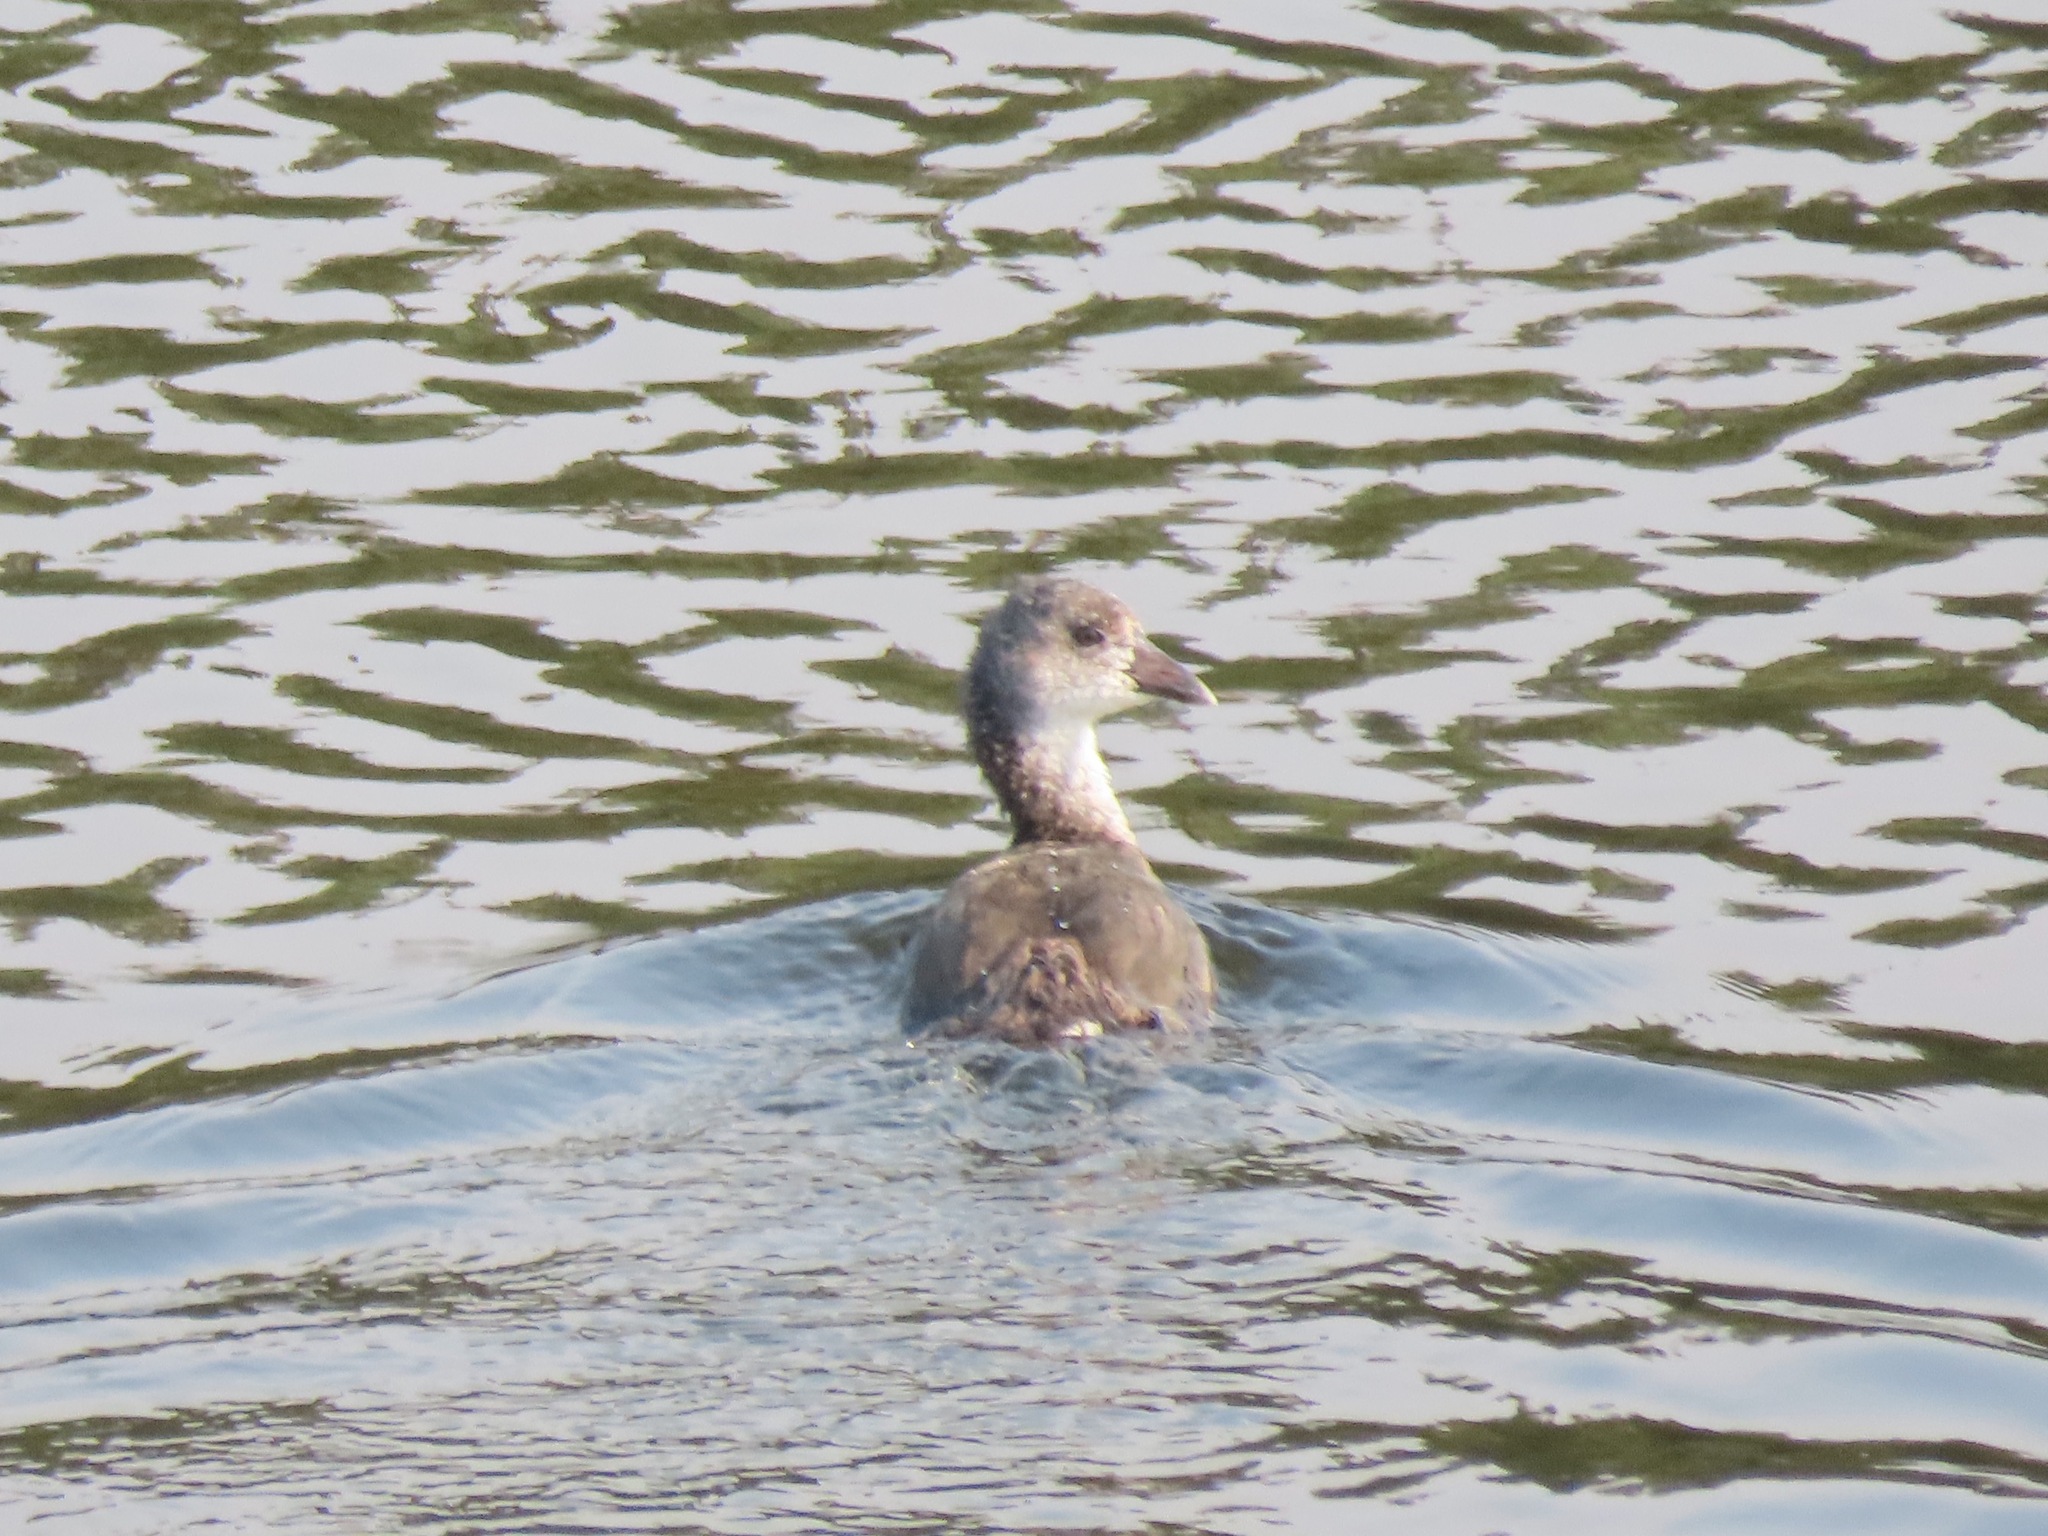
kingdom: Animalia
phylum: Chordata
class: Aves
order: Gruiformes
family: Rallidae
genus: Fulica
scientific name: Fulica americana
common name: American coot
